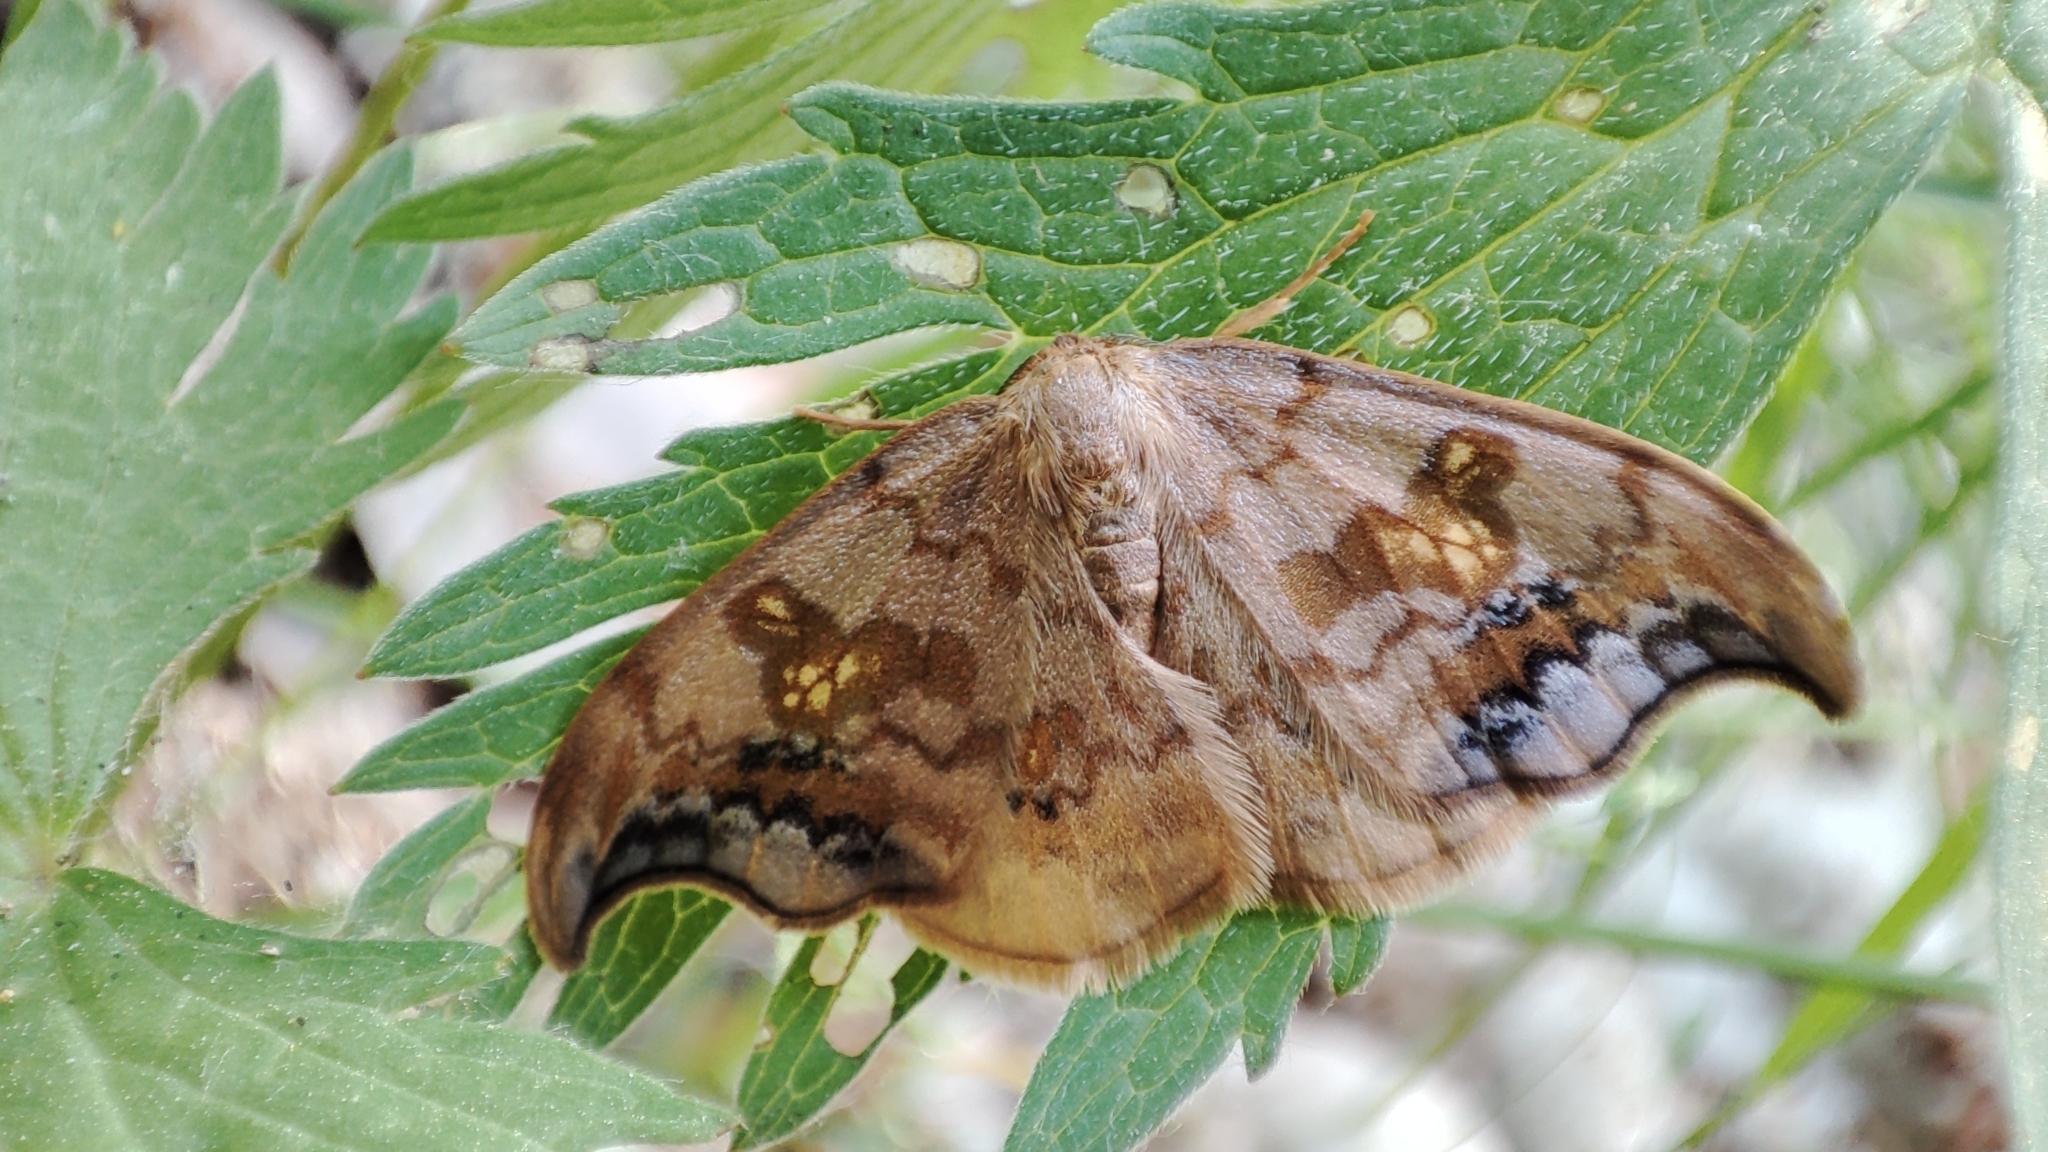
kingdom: Animalia
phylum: Arthropoda
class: Insecta
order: Lepidoptera
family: Drepanidae
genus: Sabra
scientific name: Sabra harpagula
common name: Scarce hook-tip
